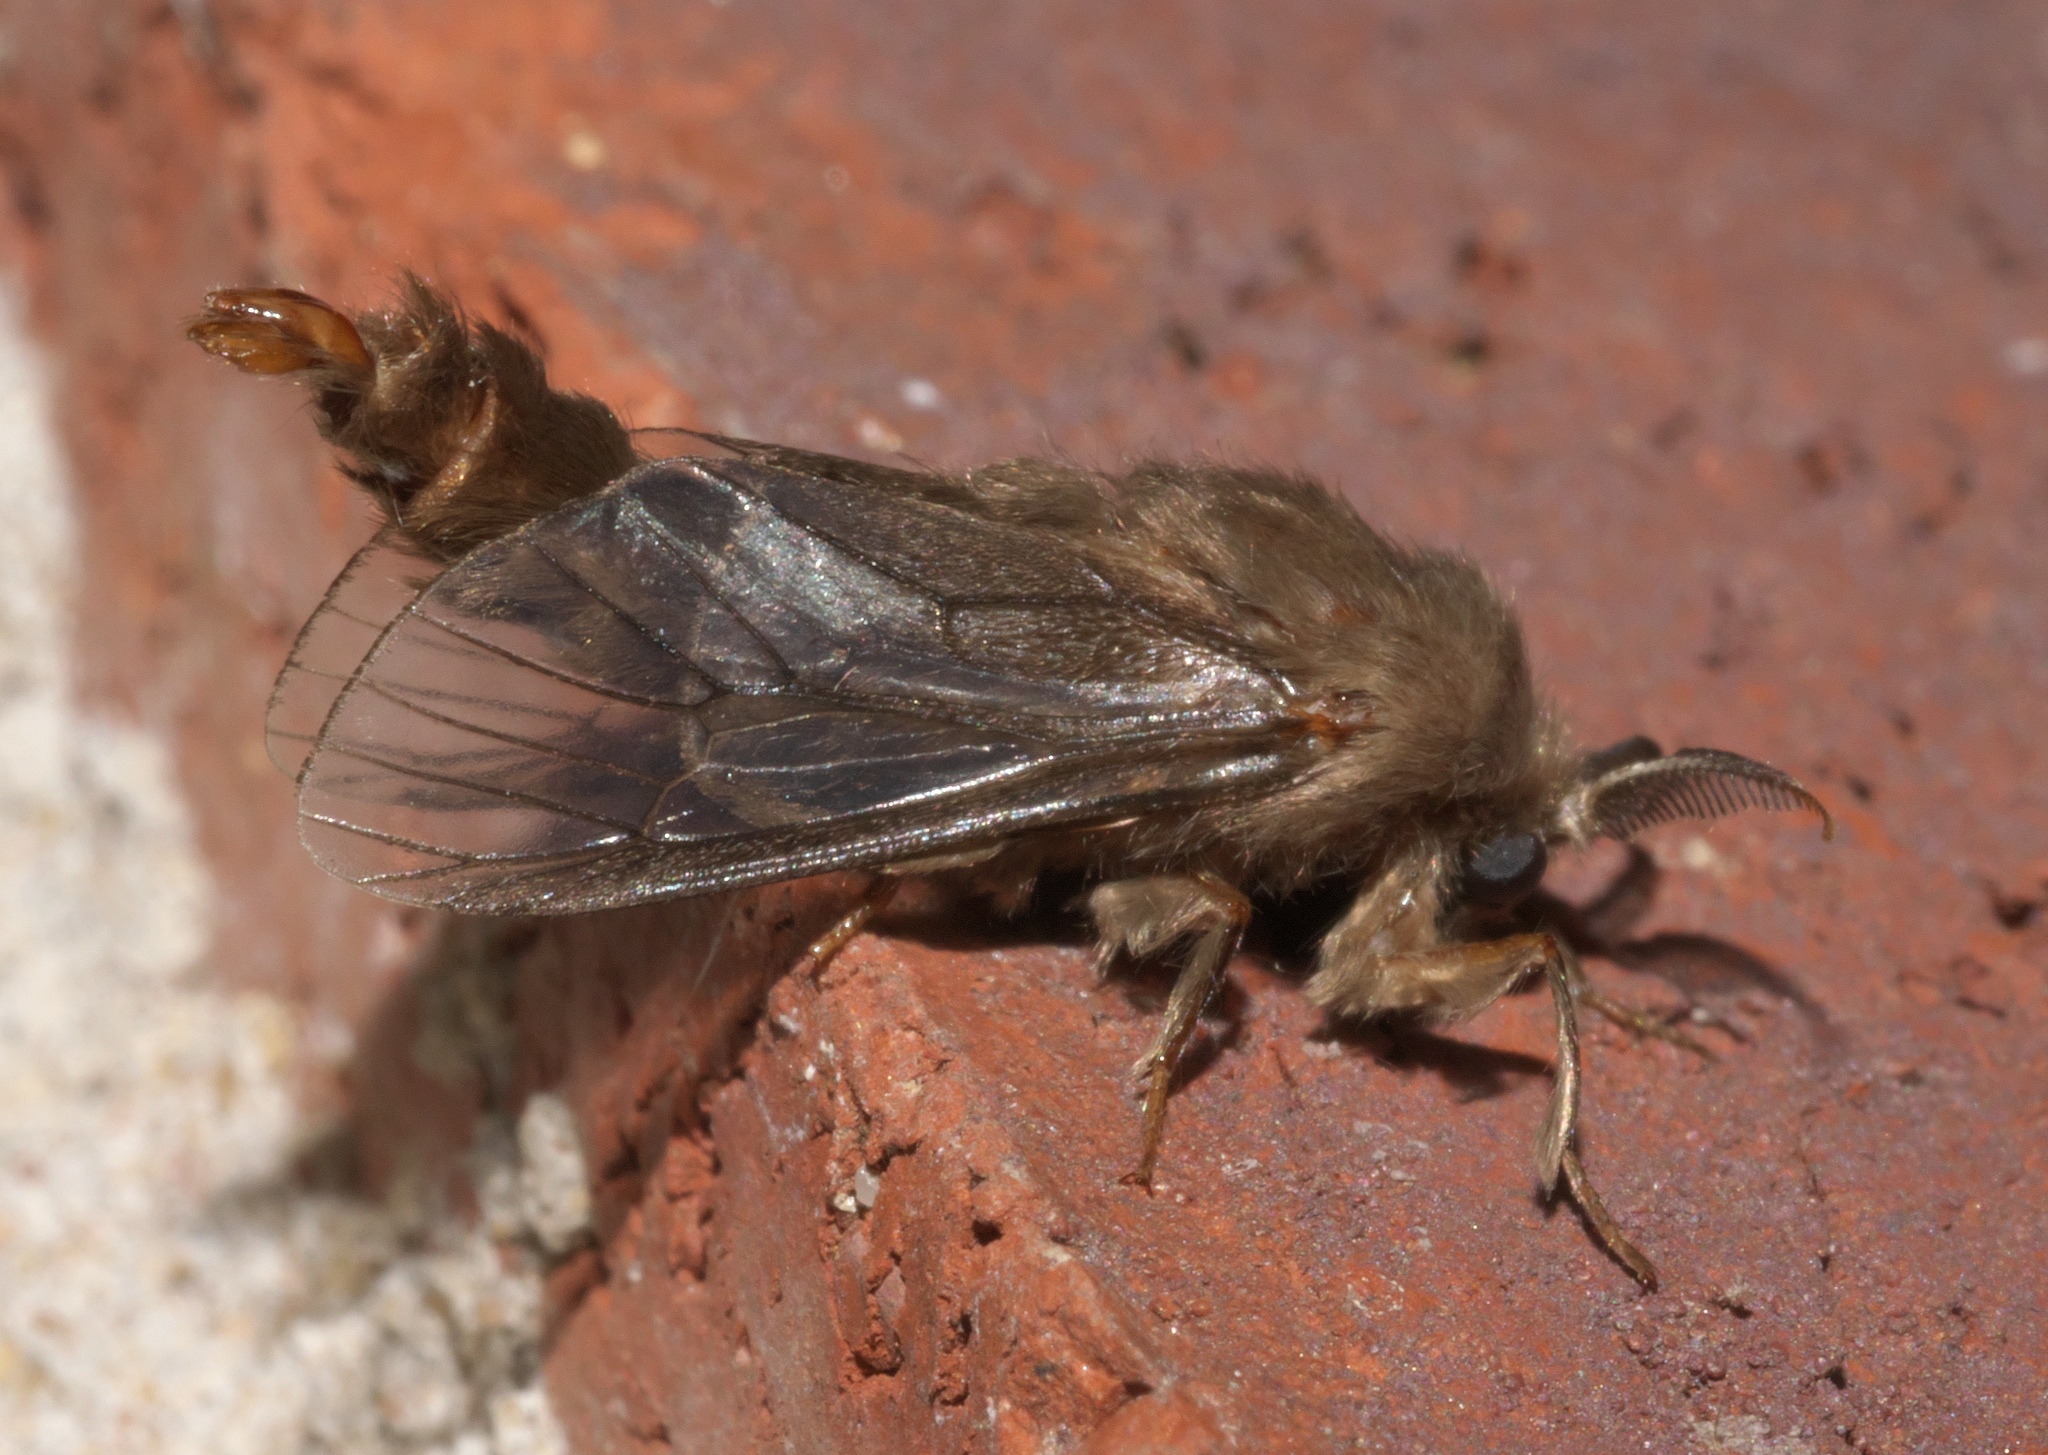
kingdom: Animalia
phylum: Arthropoda
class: Insecta
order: Lepidoptera
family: Psychidae
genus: Thyridopteryx
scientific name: Thyridopteryx ephemeraeformis
